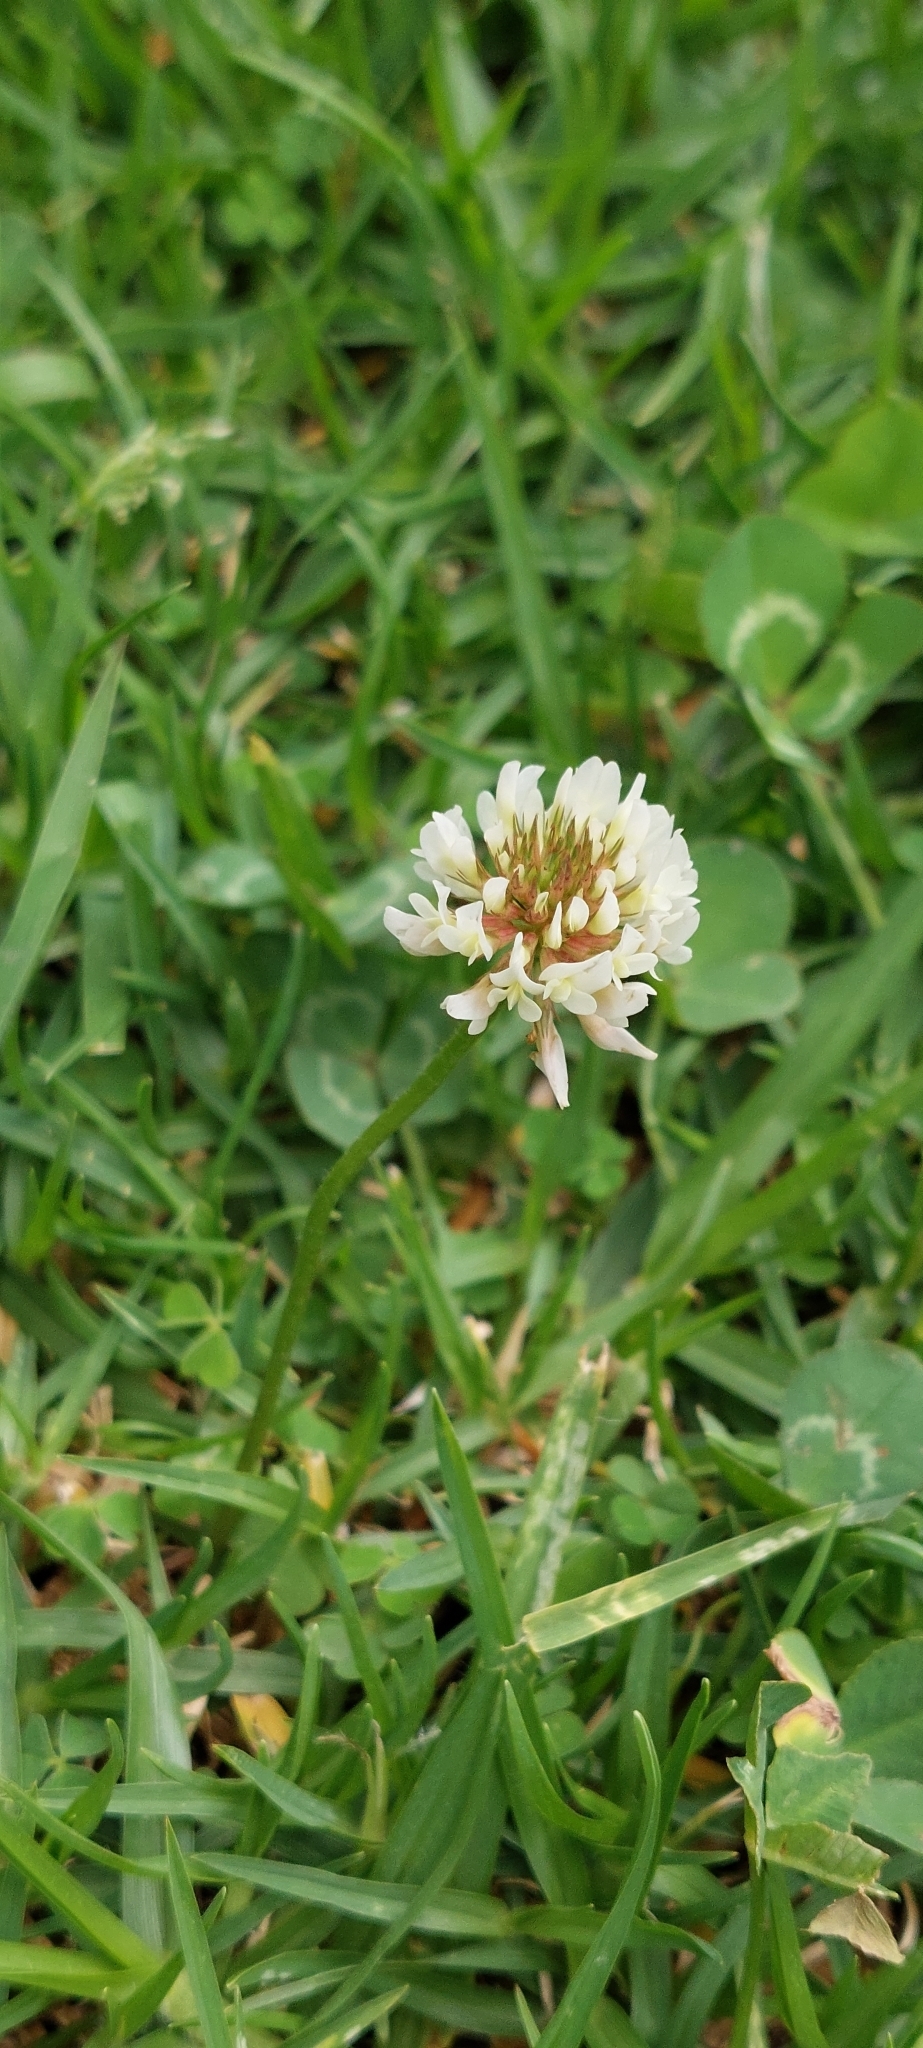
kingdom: Plantae
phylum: Tracheophyta
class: Magnoliopsida
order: Fabales
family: Fabaceae
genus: Trifolium
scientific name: Trifolium repens
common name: White clover
